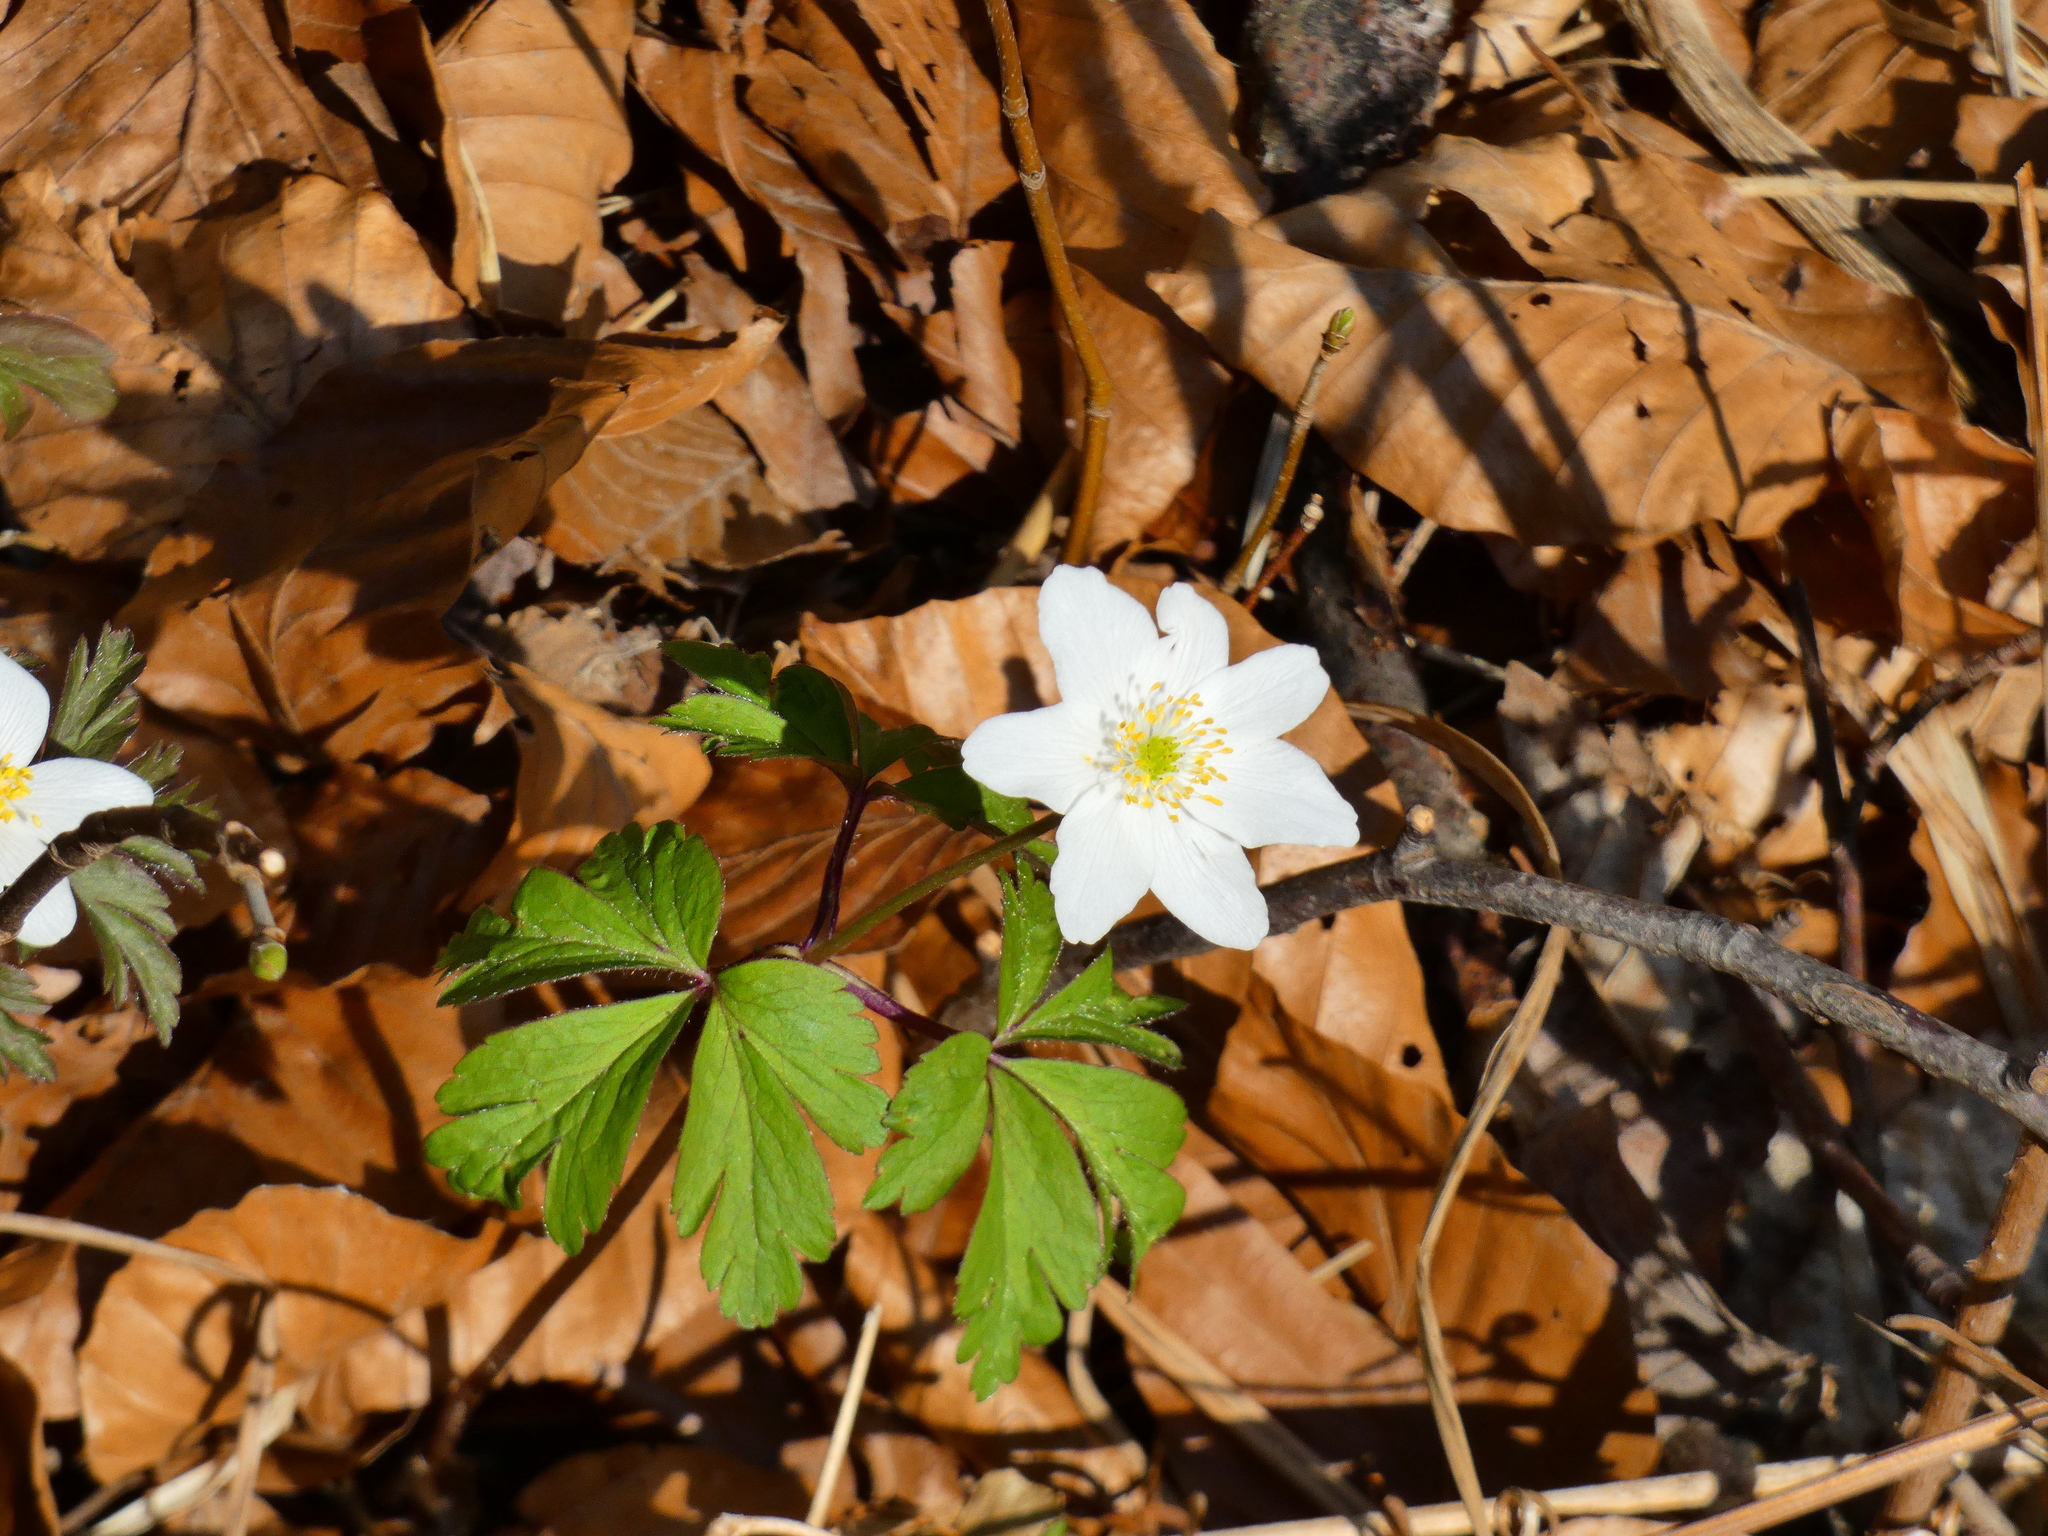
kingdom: Plantae
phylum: Tracheophyta
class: Magnoliopsida
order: Ranunculales
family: Ranunculaceae
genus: Anemone
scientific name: Anemone nemorosa
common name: Wood anemone
